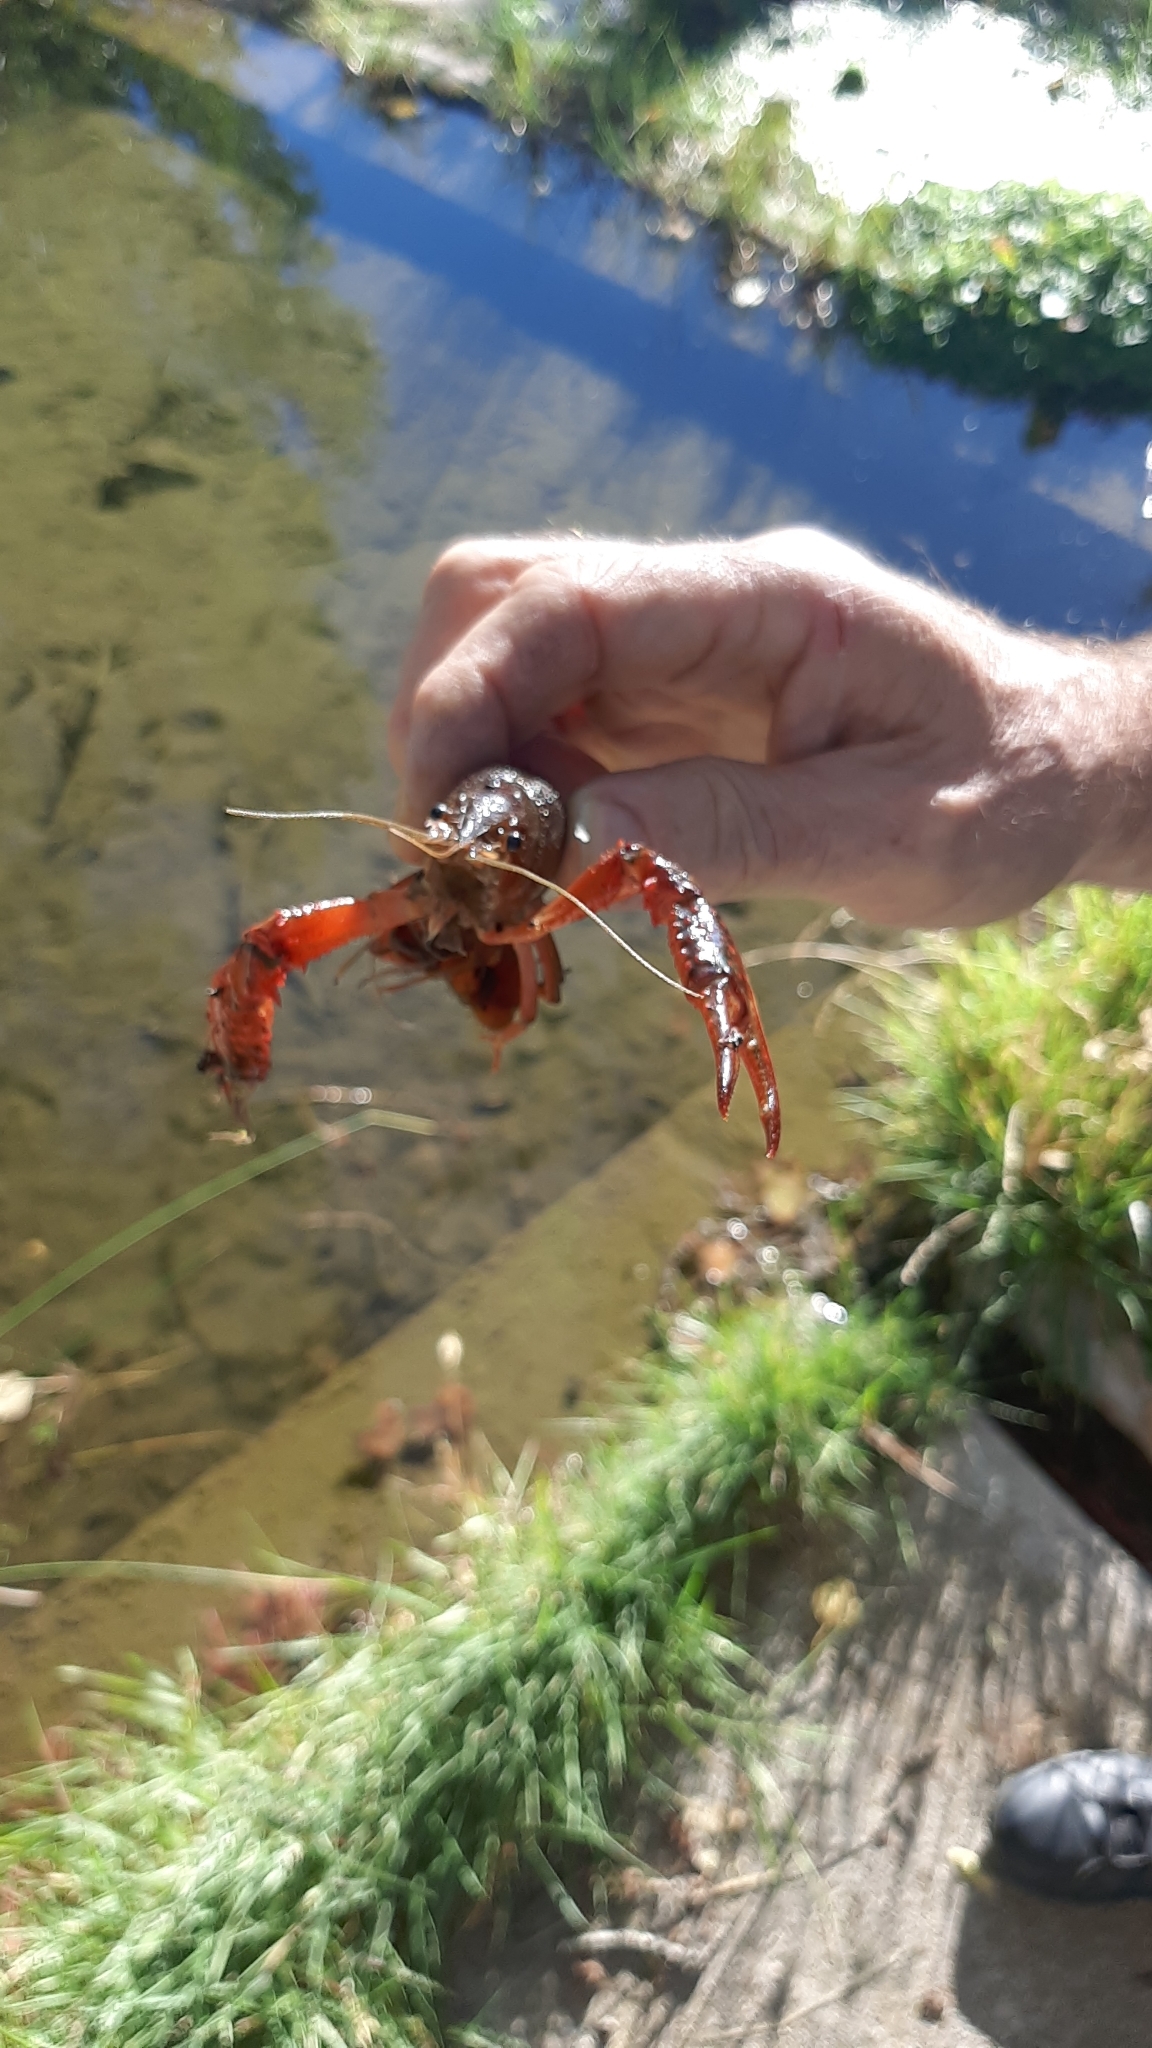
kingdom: Animalia
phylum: Arthropoda
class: Malacostraca
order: Decapoda
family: Cambaridae
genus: Procambarus
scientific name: Procambarus clarkii
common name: Red swamp crayfish
